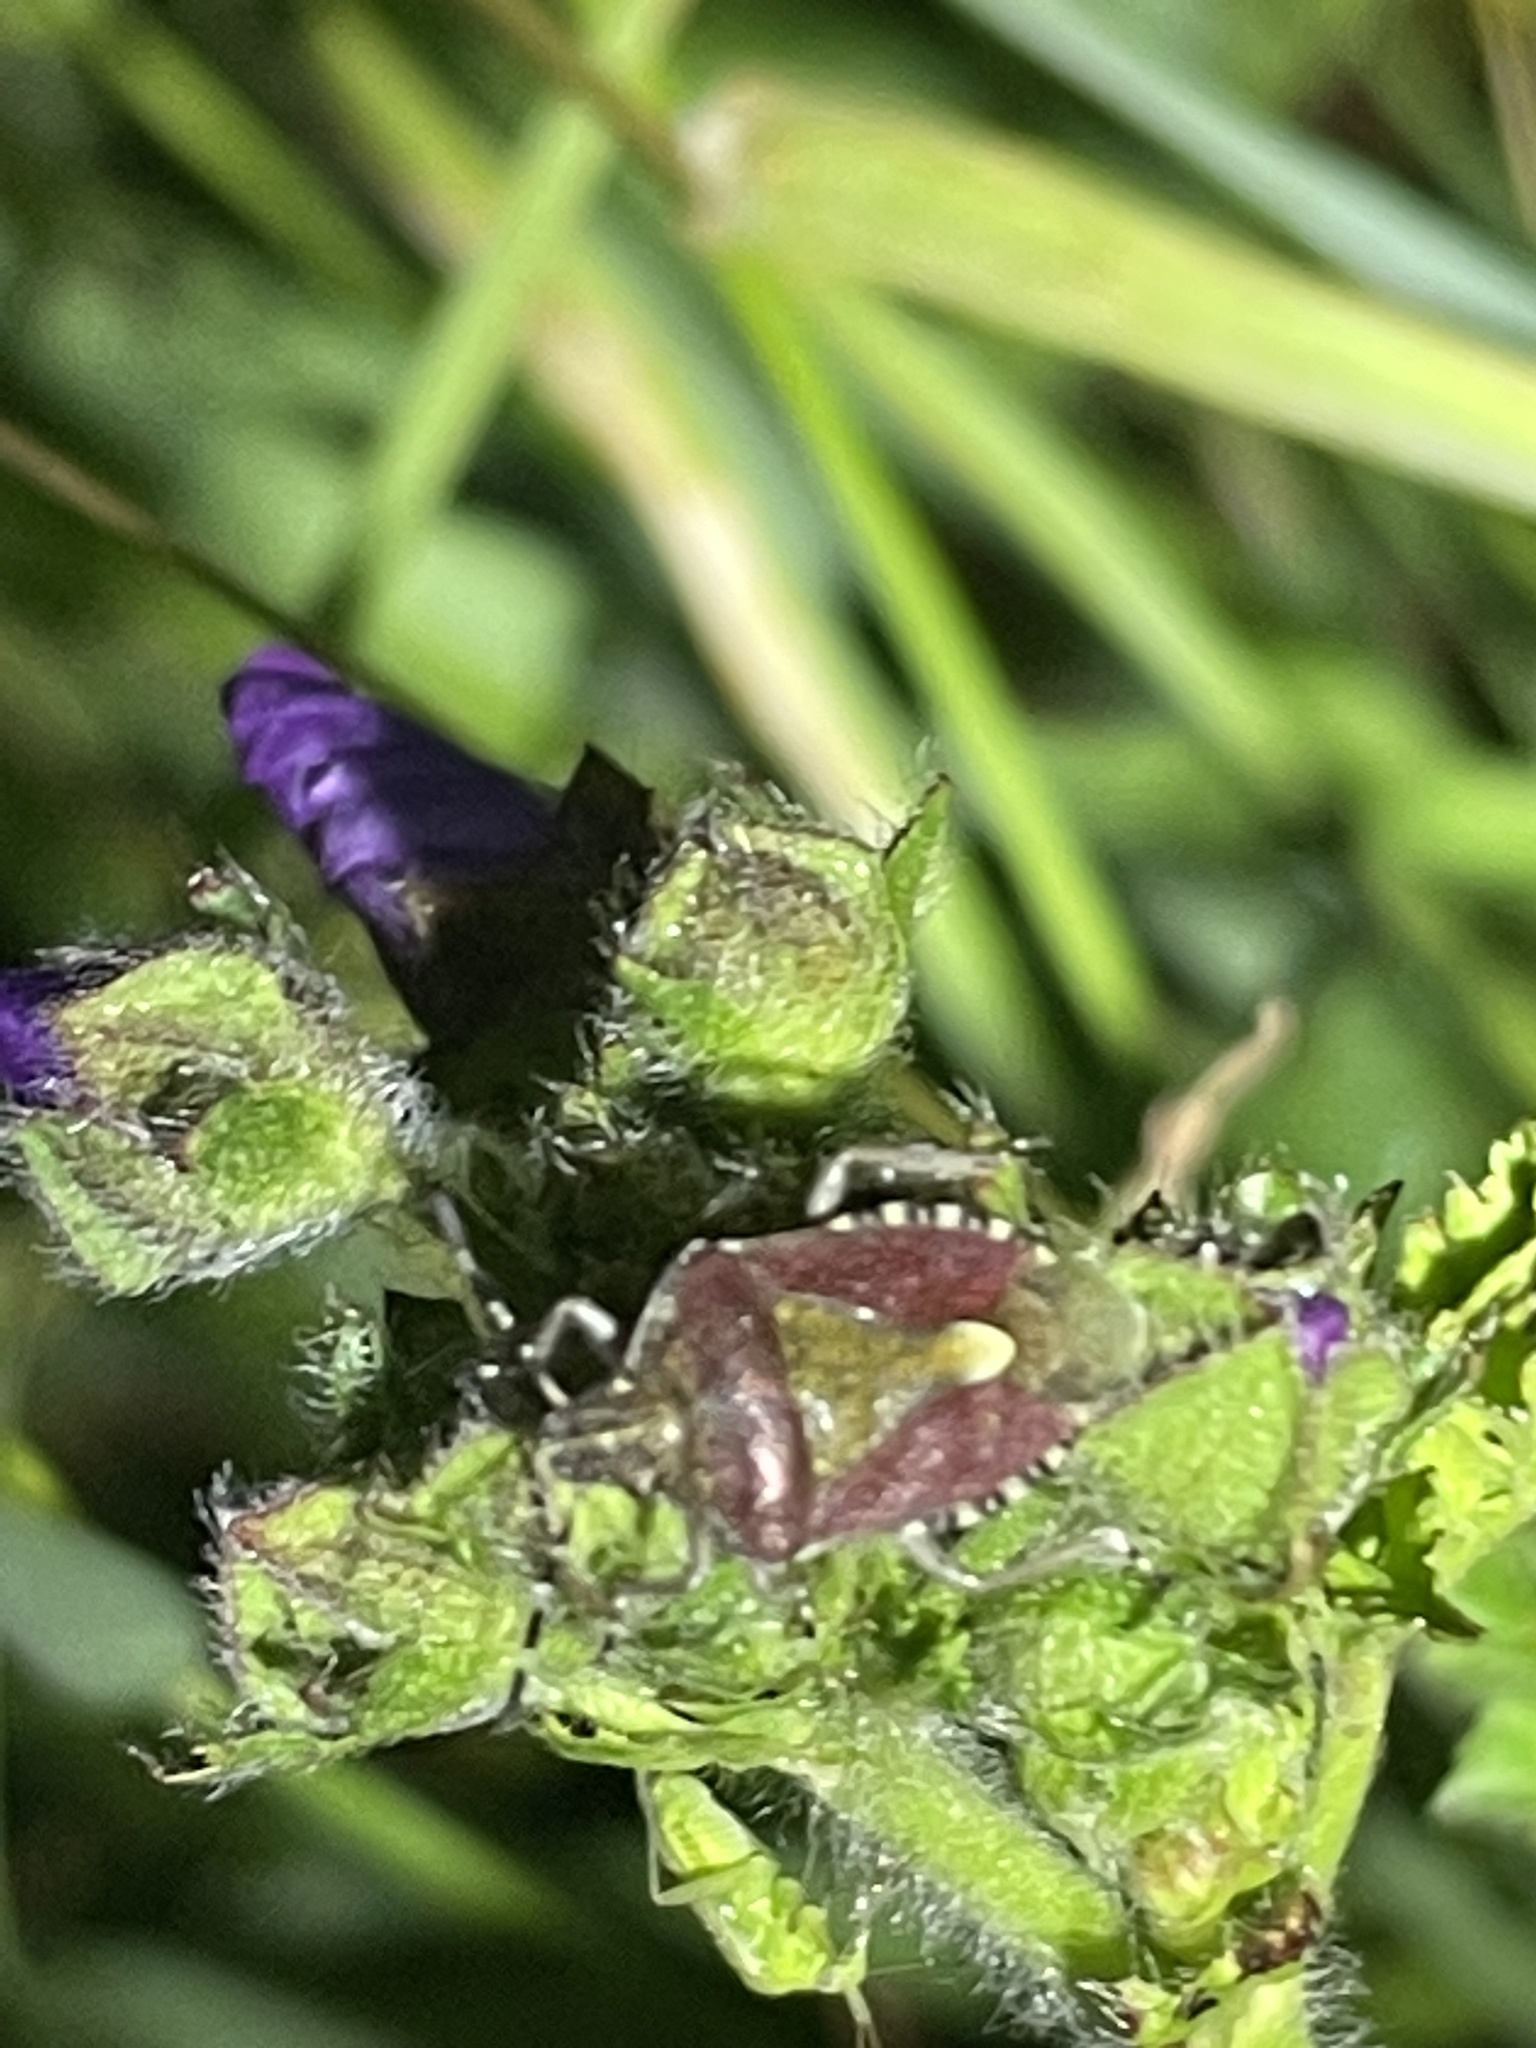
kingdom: Animalia
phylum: Arthropoda
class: Insecta
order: Hemiptera
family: Pentatomidae
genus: Dolycoris
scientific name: Dolycoris baccarum
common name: Sloe bug
